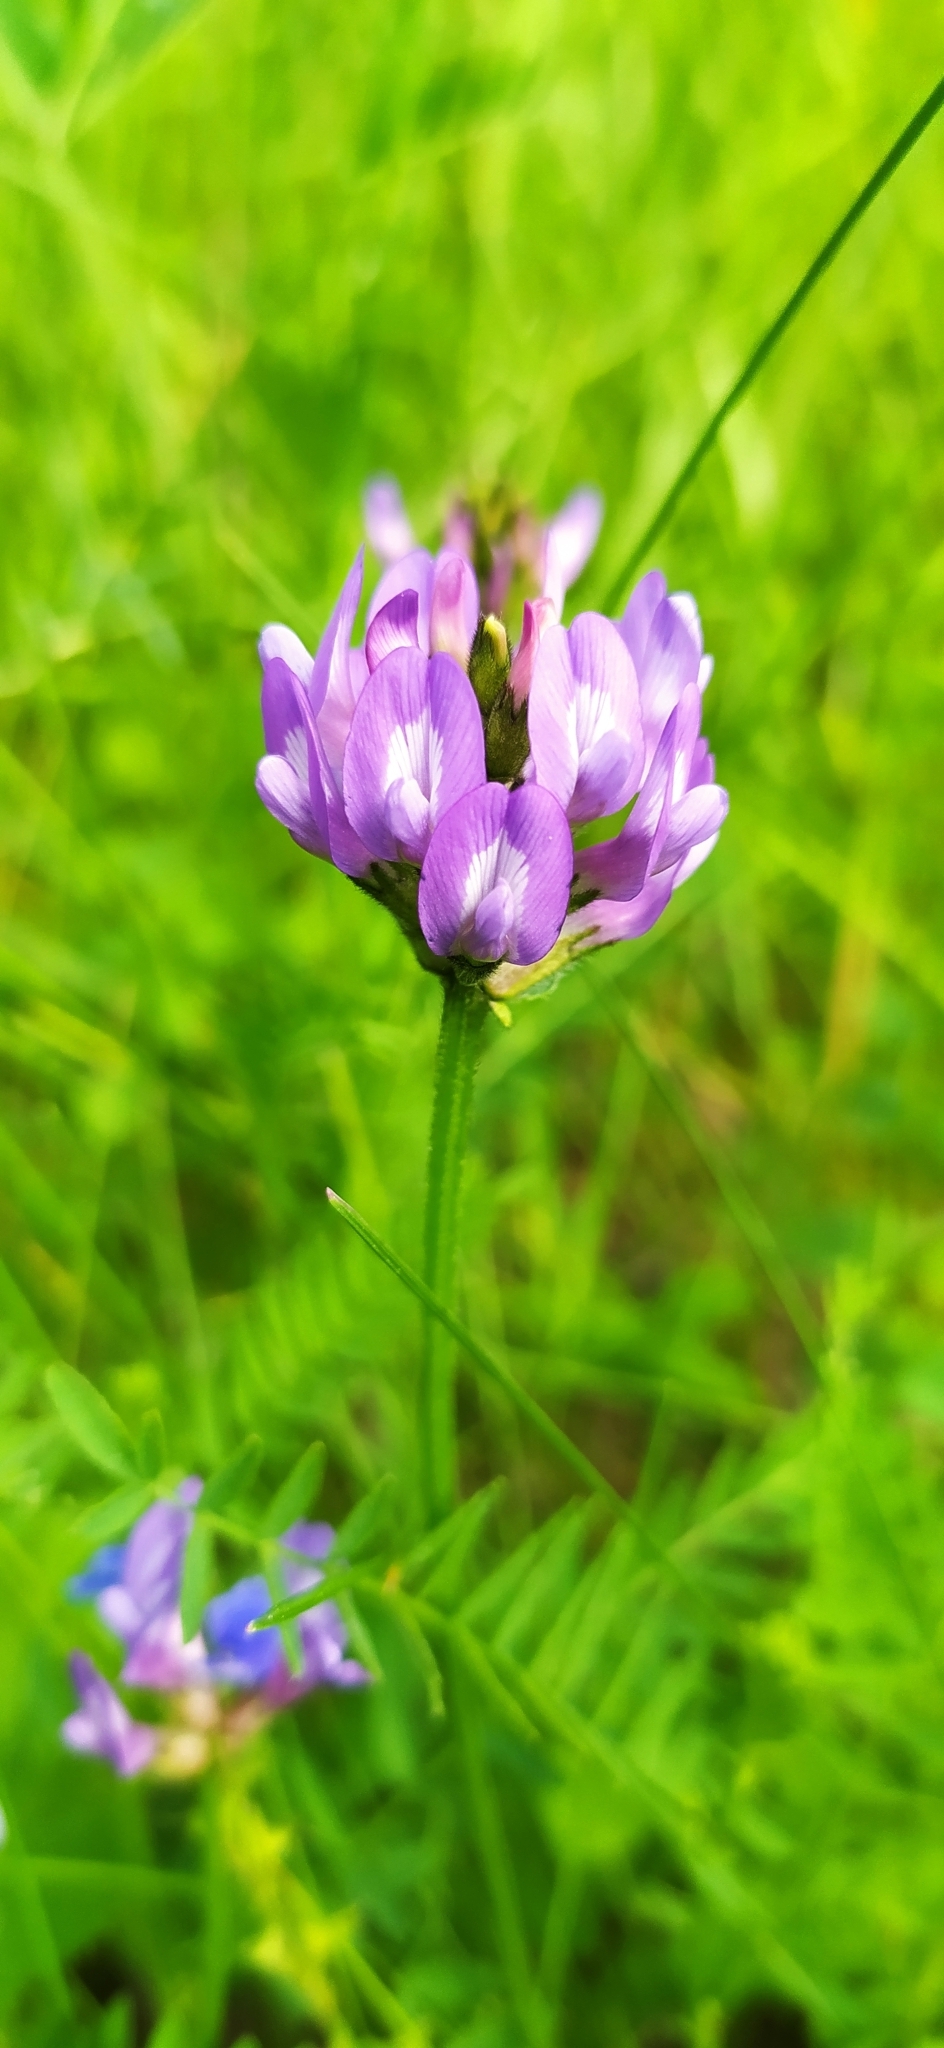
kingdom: Plantae
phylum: Tracheophyta
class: Magnoliopsida
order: Fabales
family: Fabaceae
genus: Astragalus
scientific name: Astragalus danicus
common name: Purple milk-vetch
